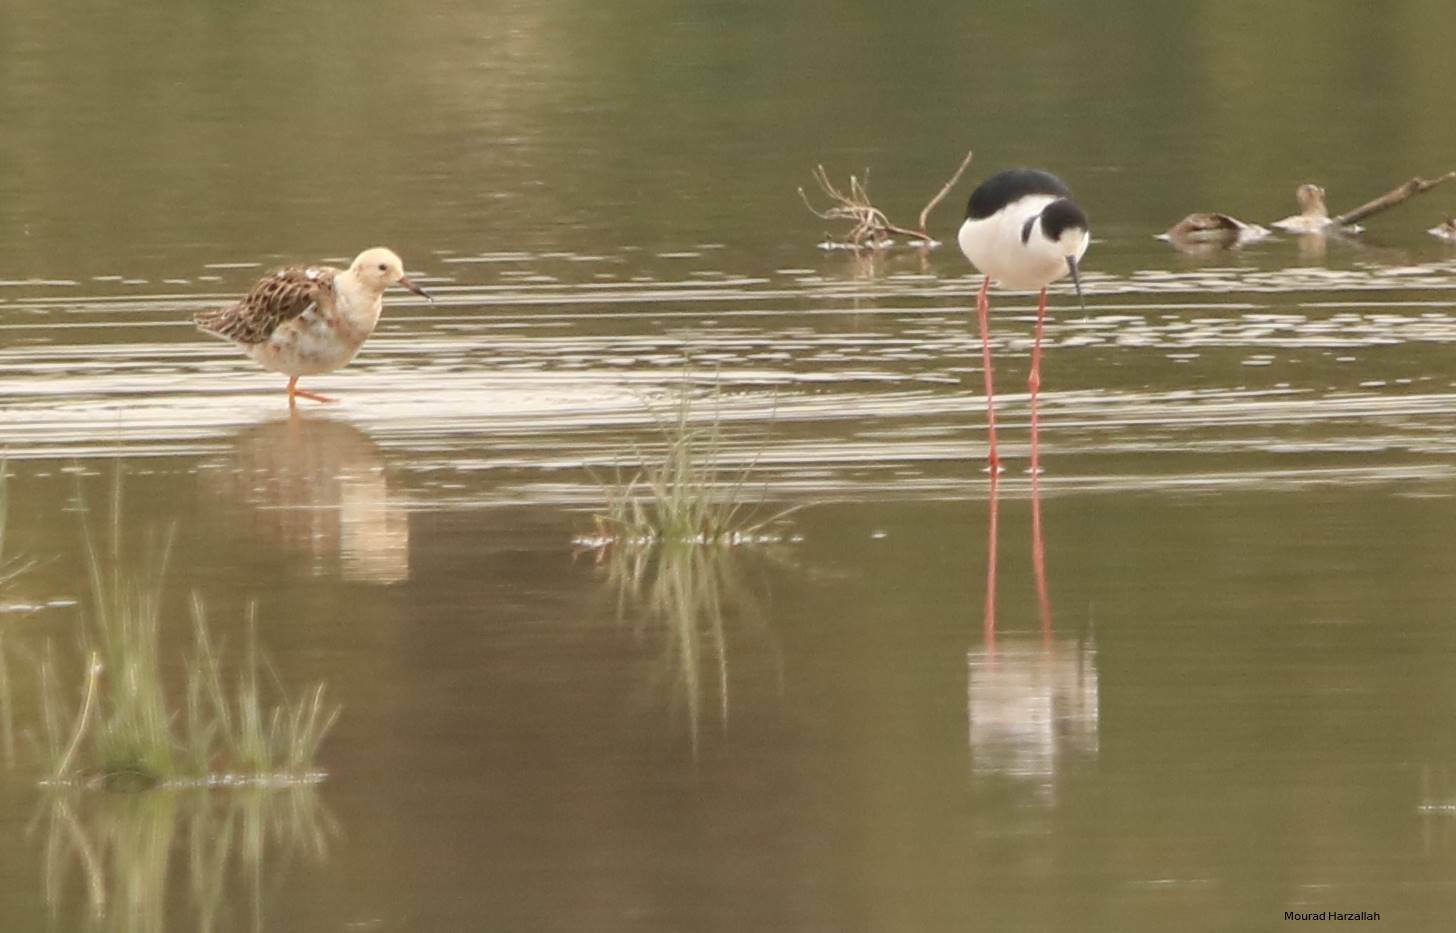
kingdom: Animalia
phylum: Chordata
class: Aves
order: Charadriiformes
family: Scolopacidae
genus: Calidris
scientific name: Calidris pugnax
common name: Ruff
